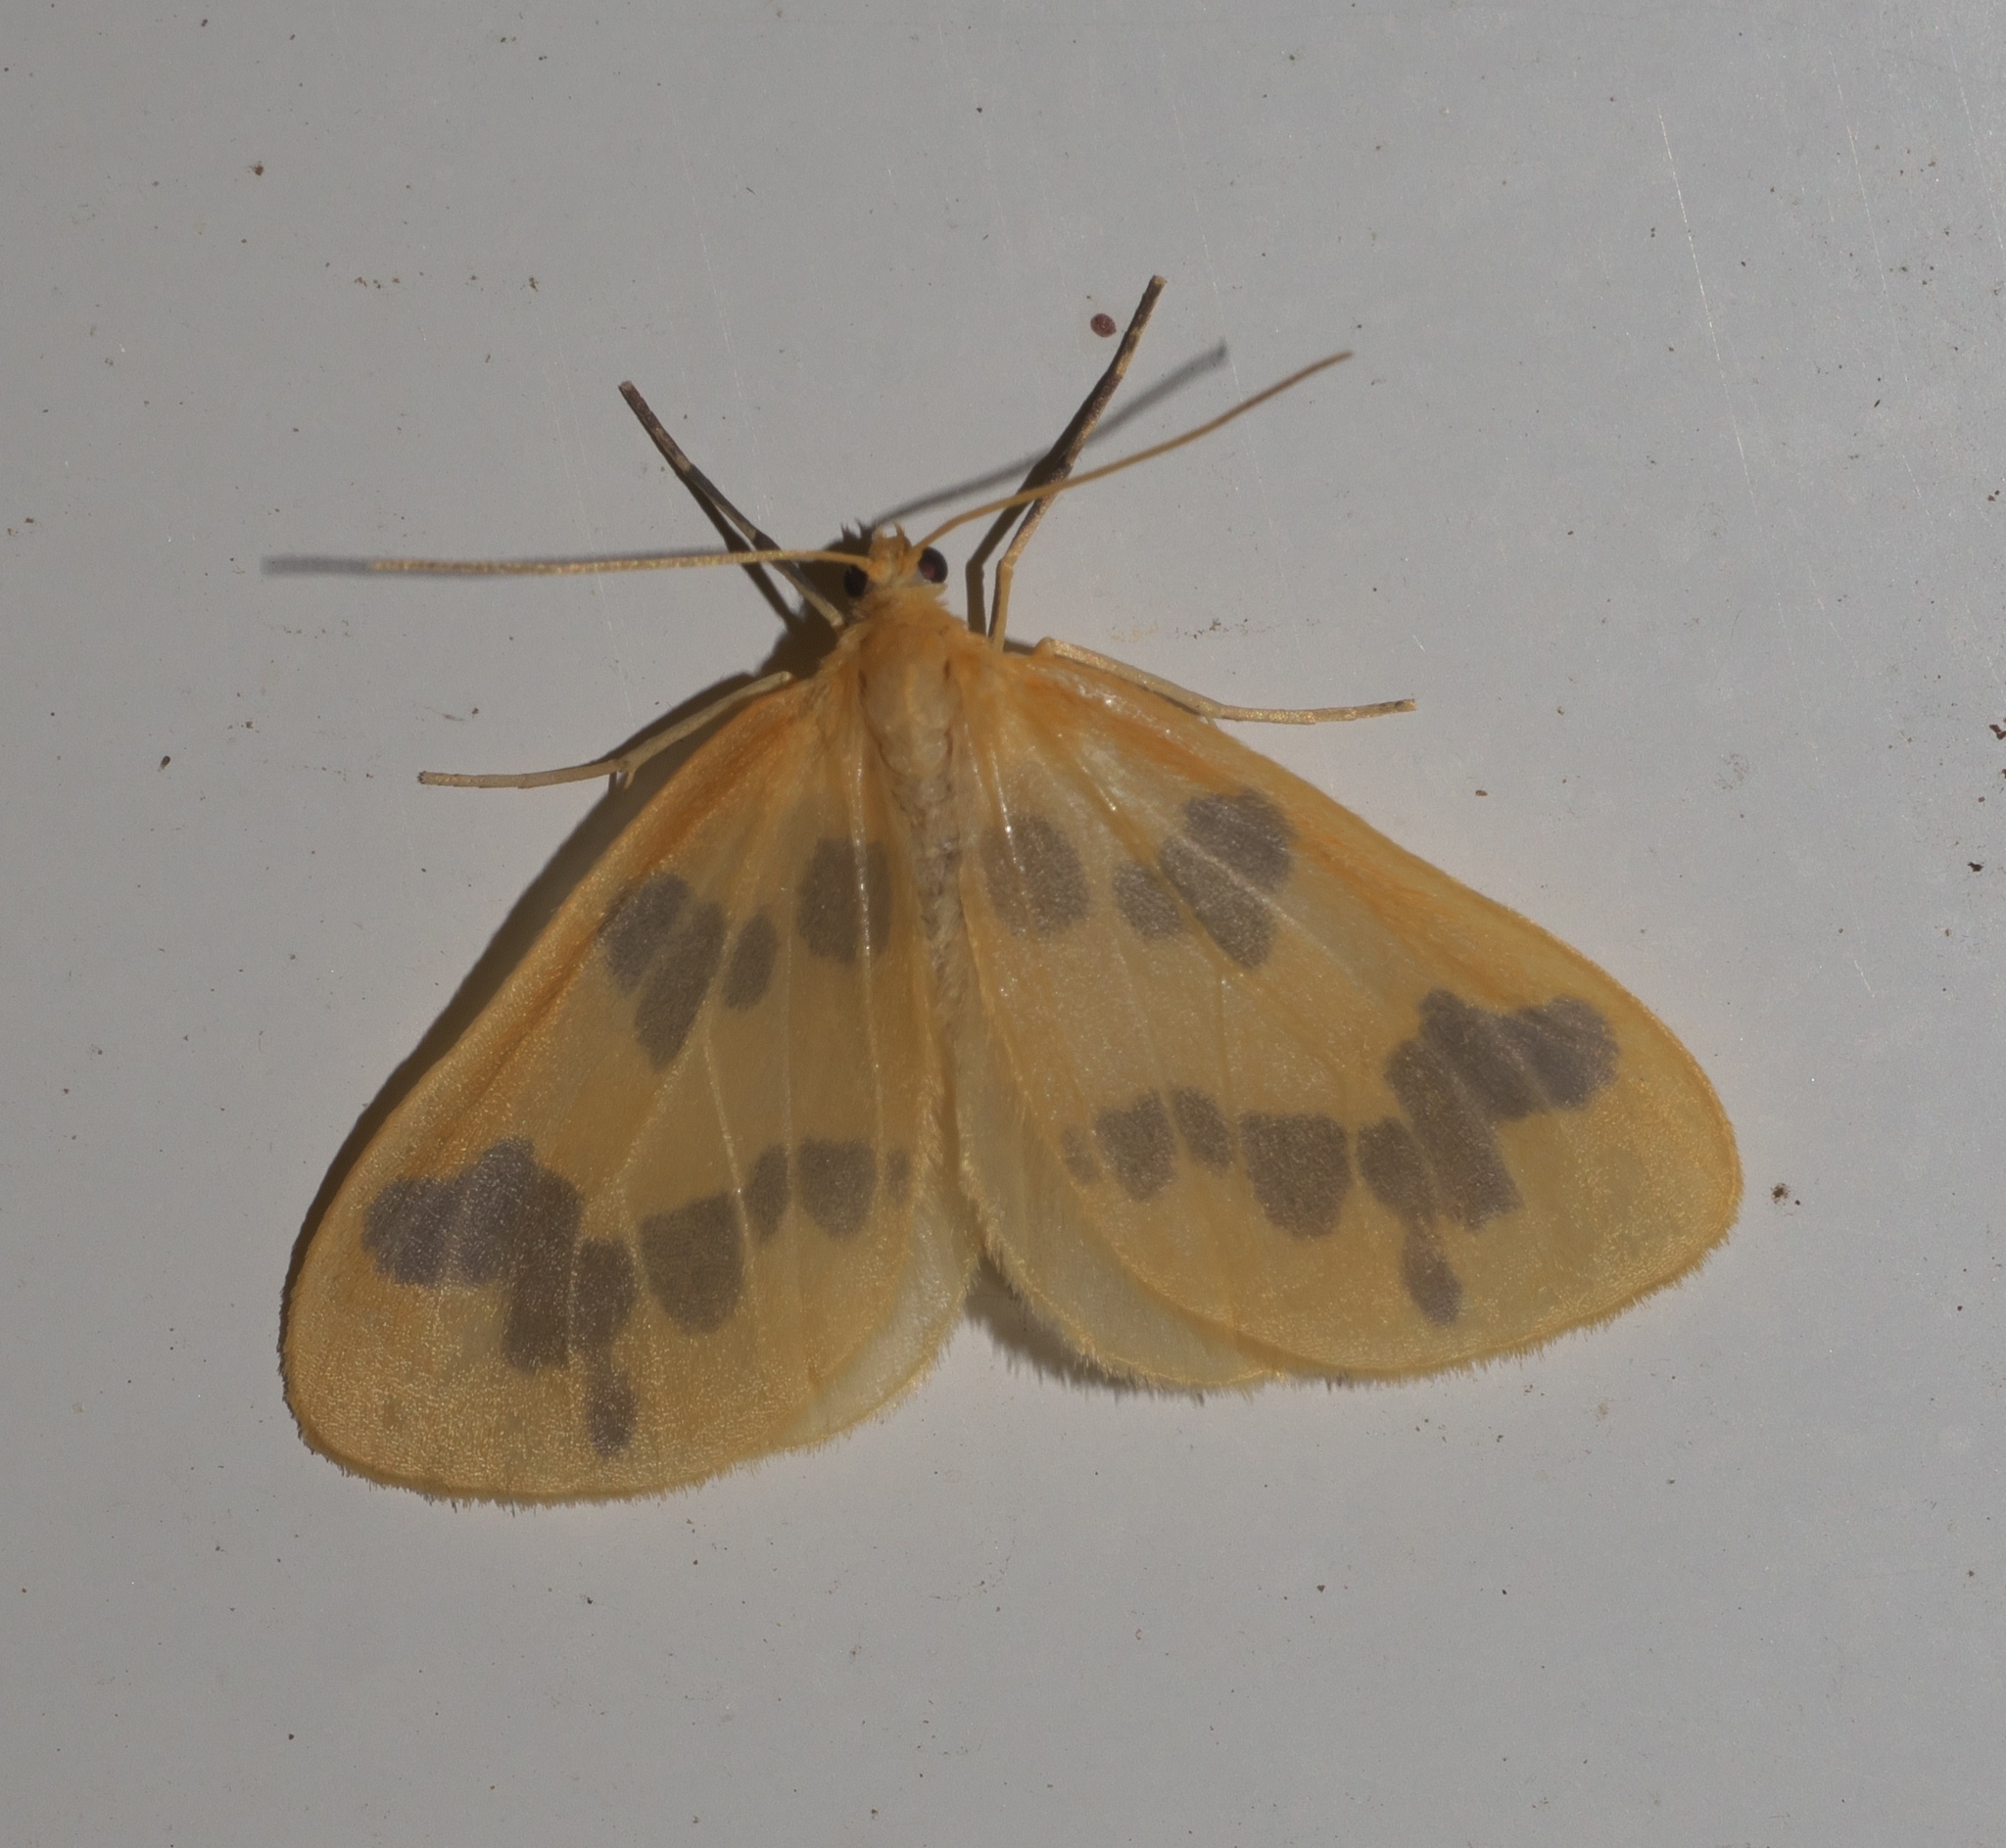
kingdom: Animalia
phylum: Arthropoda
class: Insecta
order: Lepidoptera
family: Geometridae
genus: Eubaphe
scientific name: Eubaphe mendica
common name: Beggar
